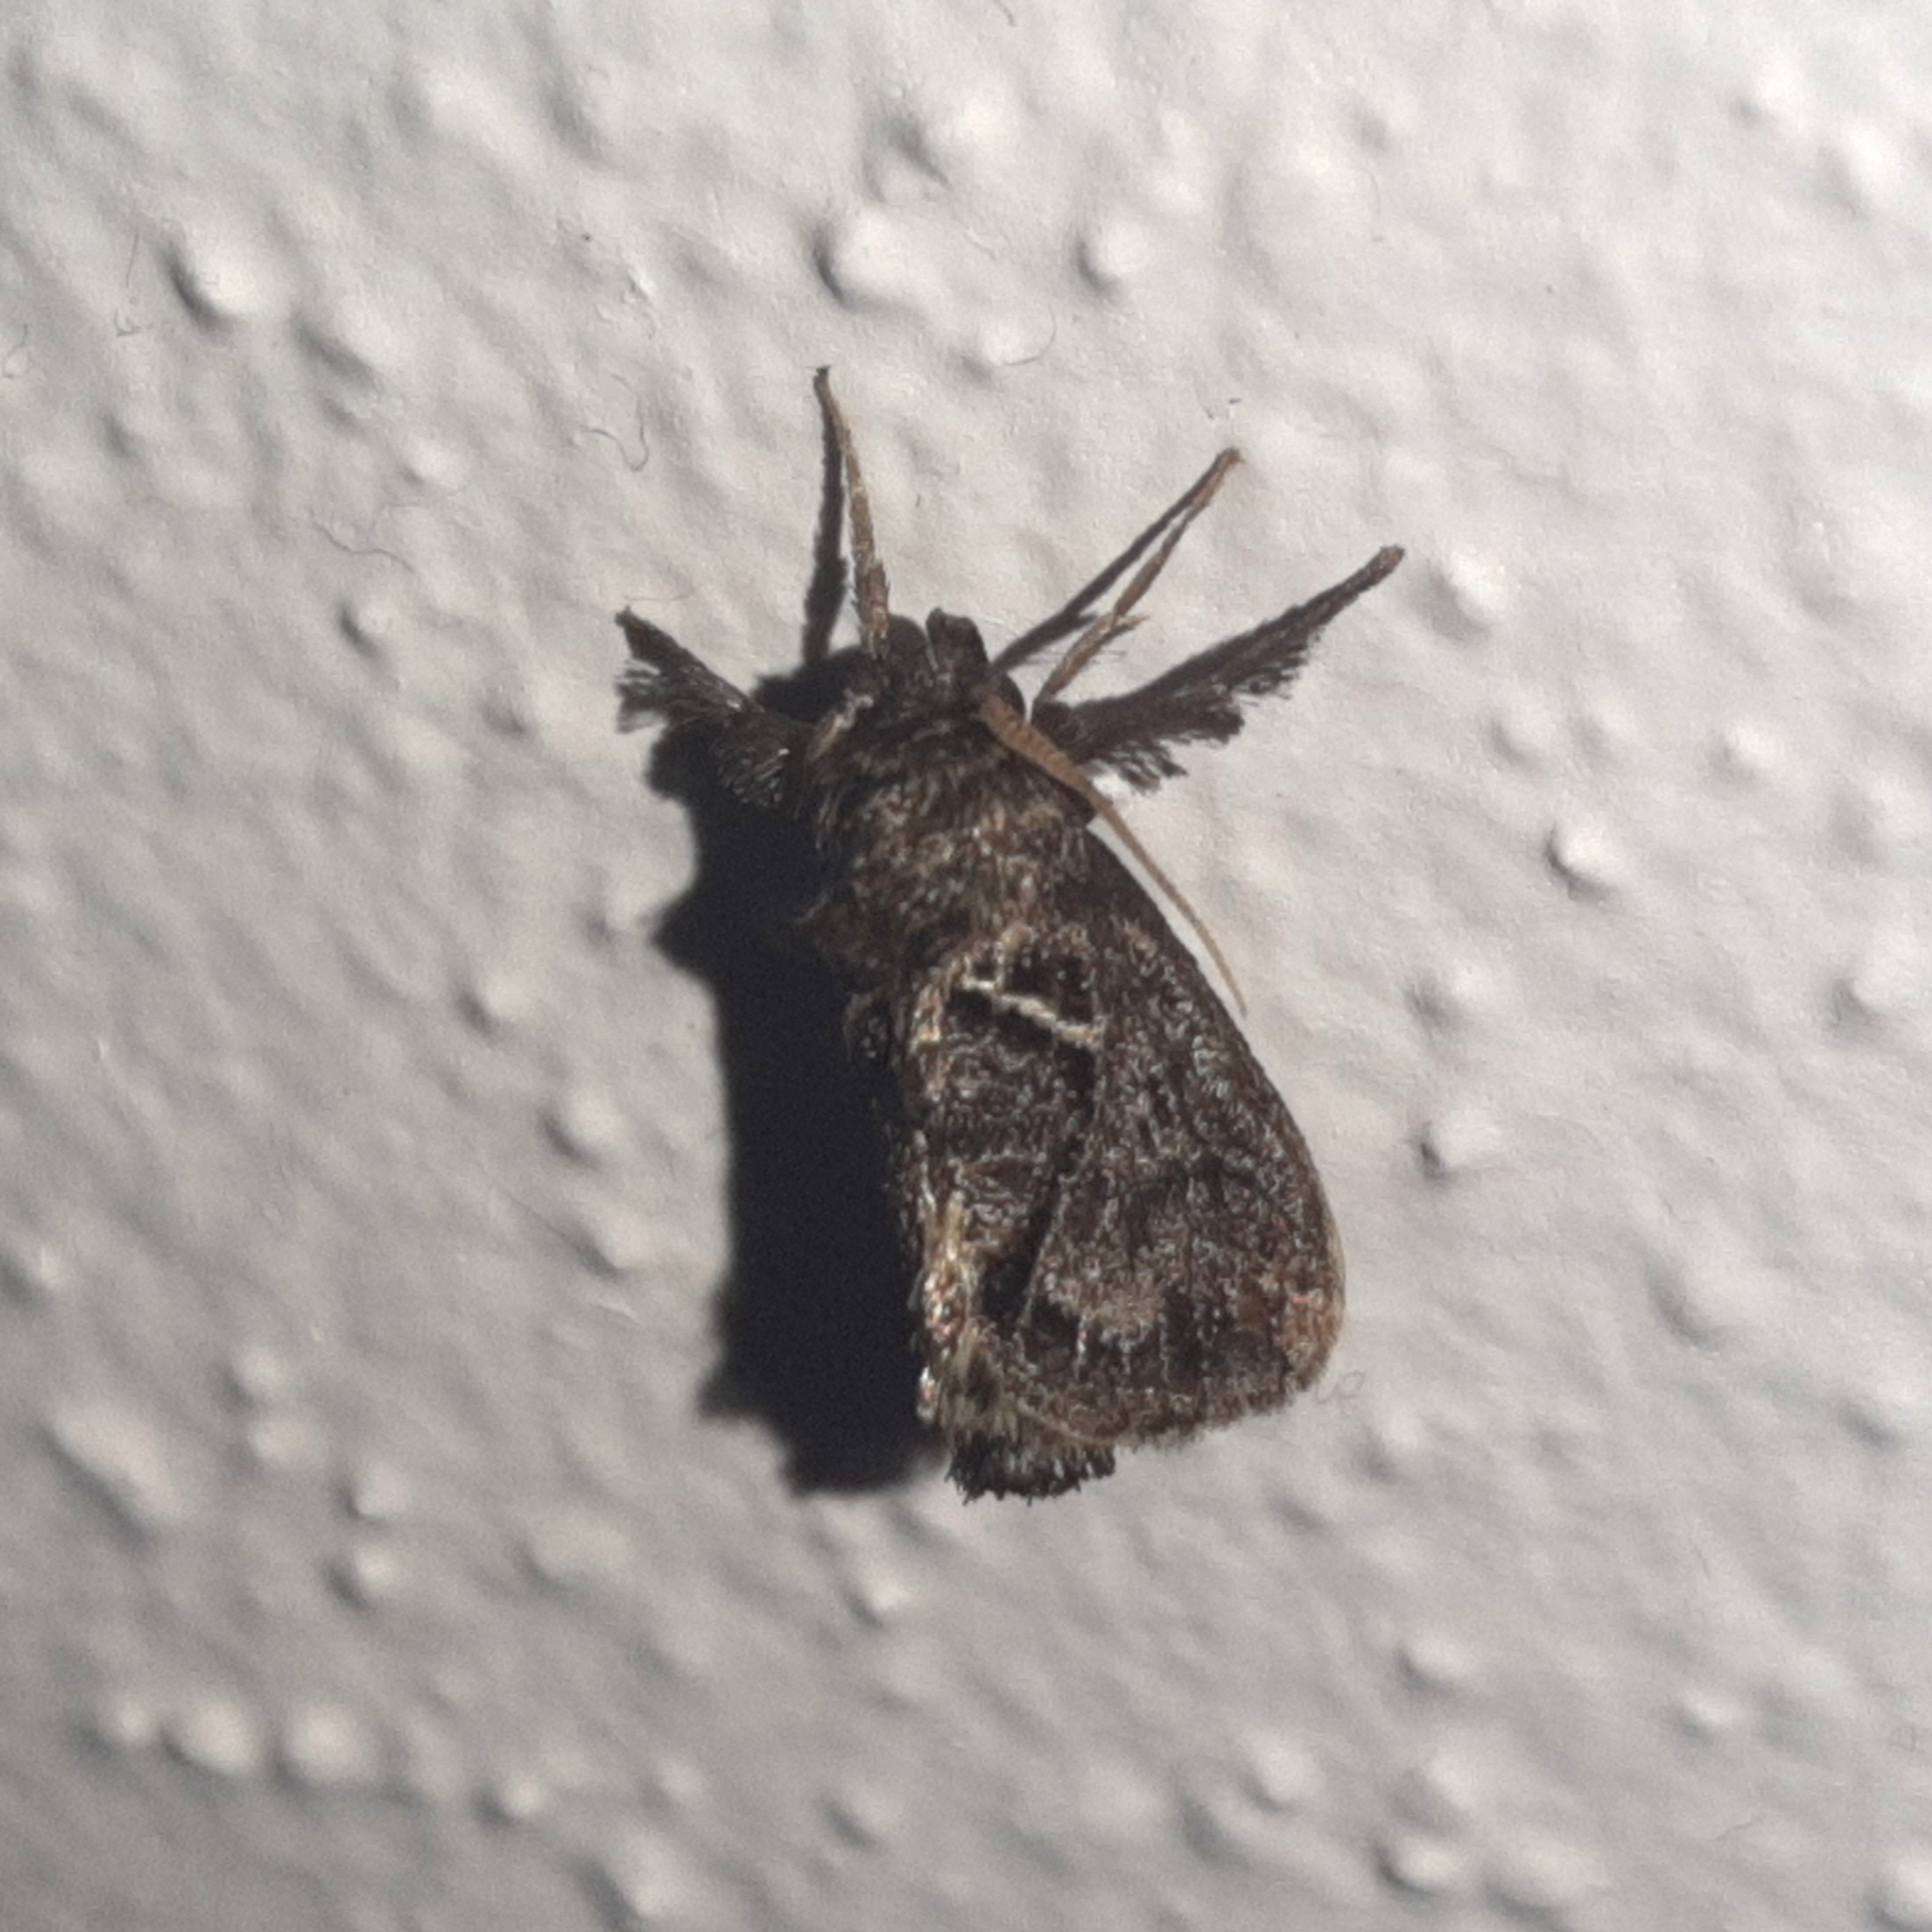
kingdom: Animalia
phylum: Arthropoda
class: Insecta
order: Lepidoptera
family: Limacodidae
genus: Euclea
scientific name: Euclea plugma
